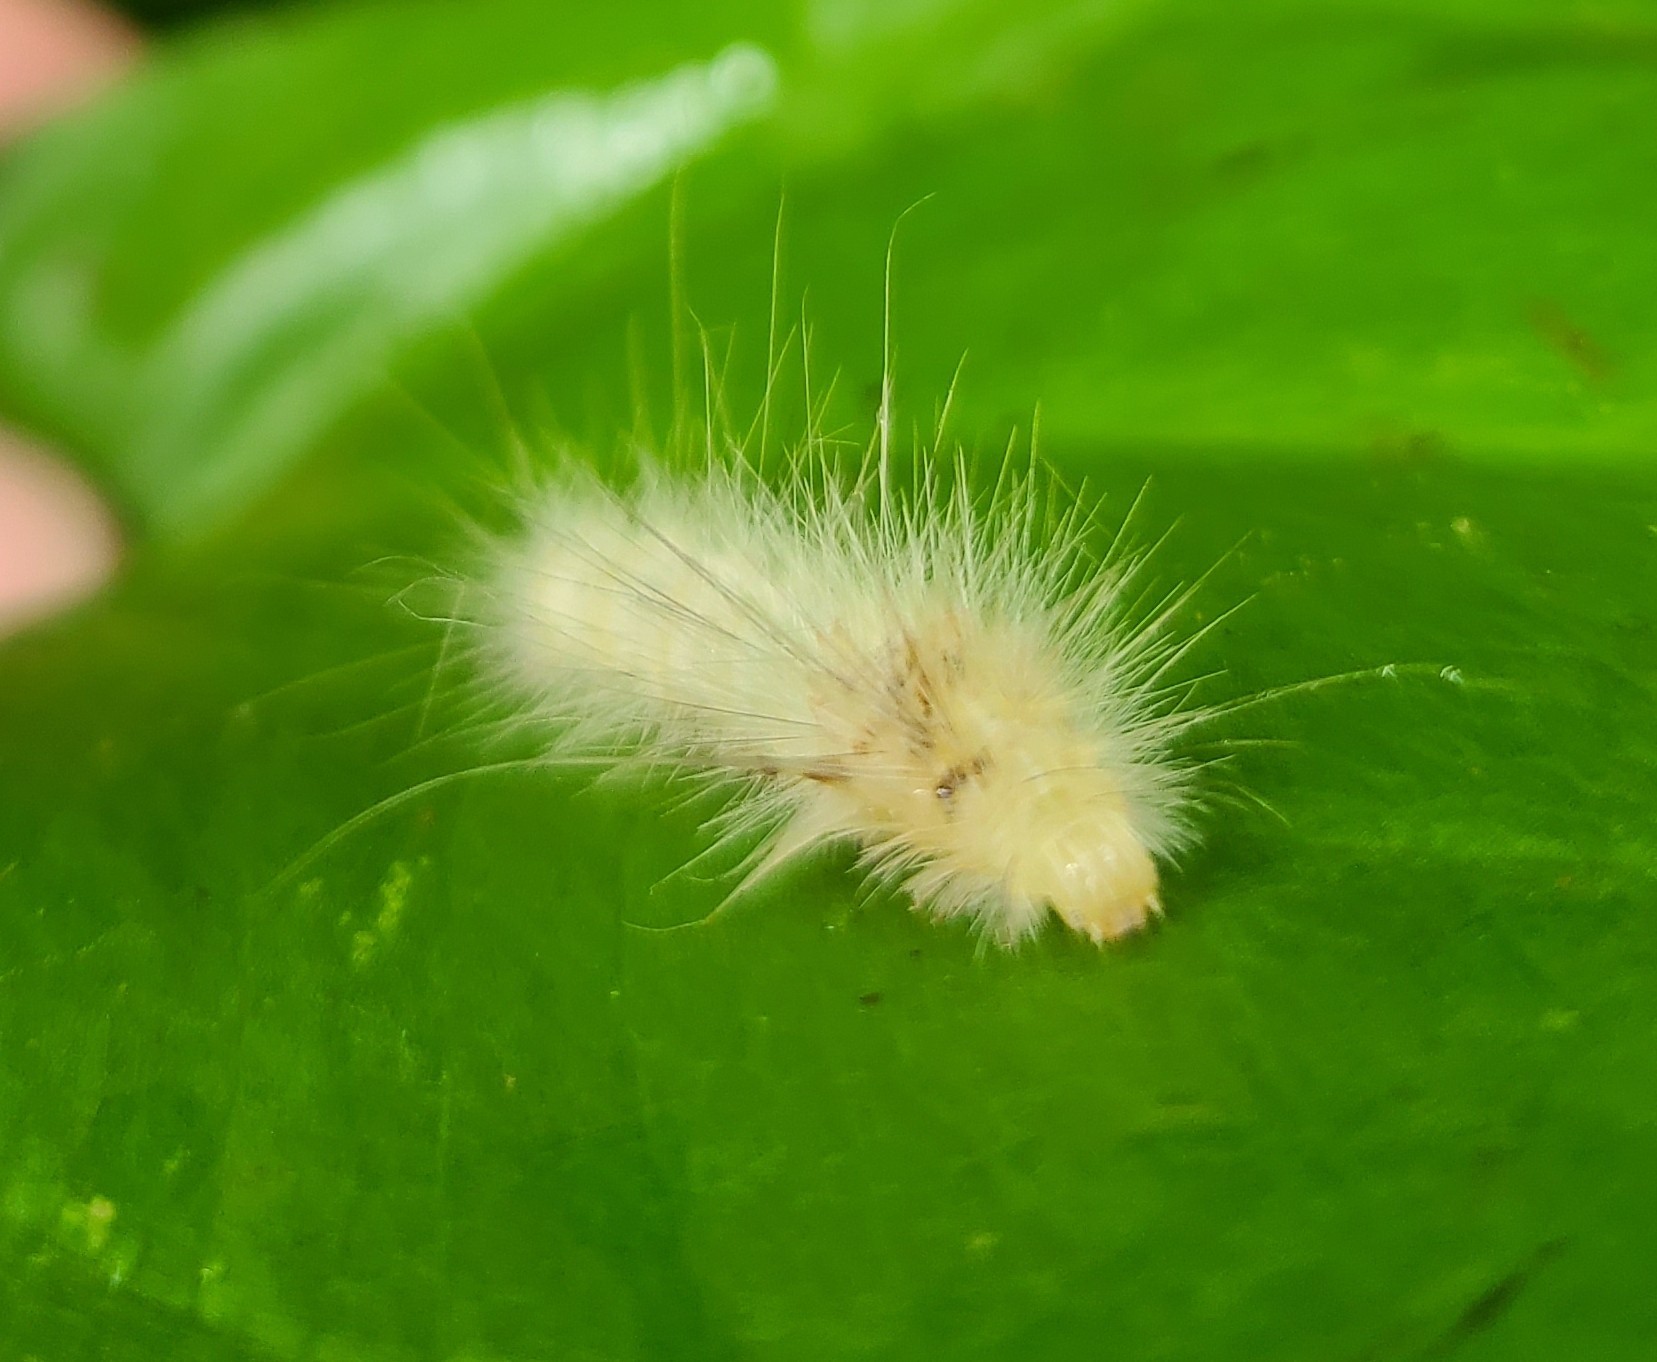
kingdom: Animalia
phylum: Arthropoda
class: Insecta
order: Lepidoptera
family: Erebidae
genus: Spilosoma
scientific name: Spilosoma virginica
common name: Virginia tiger moth
